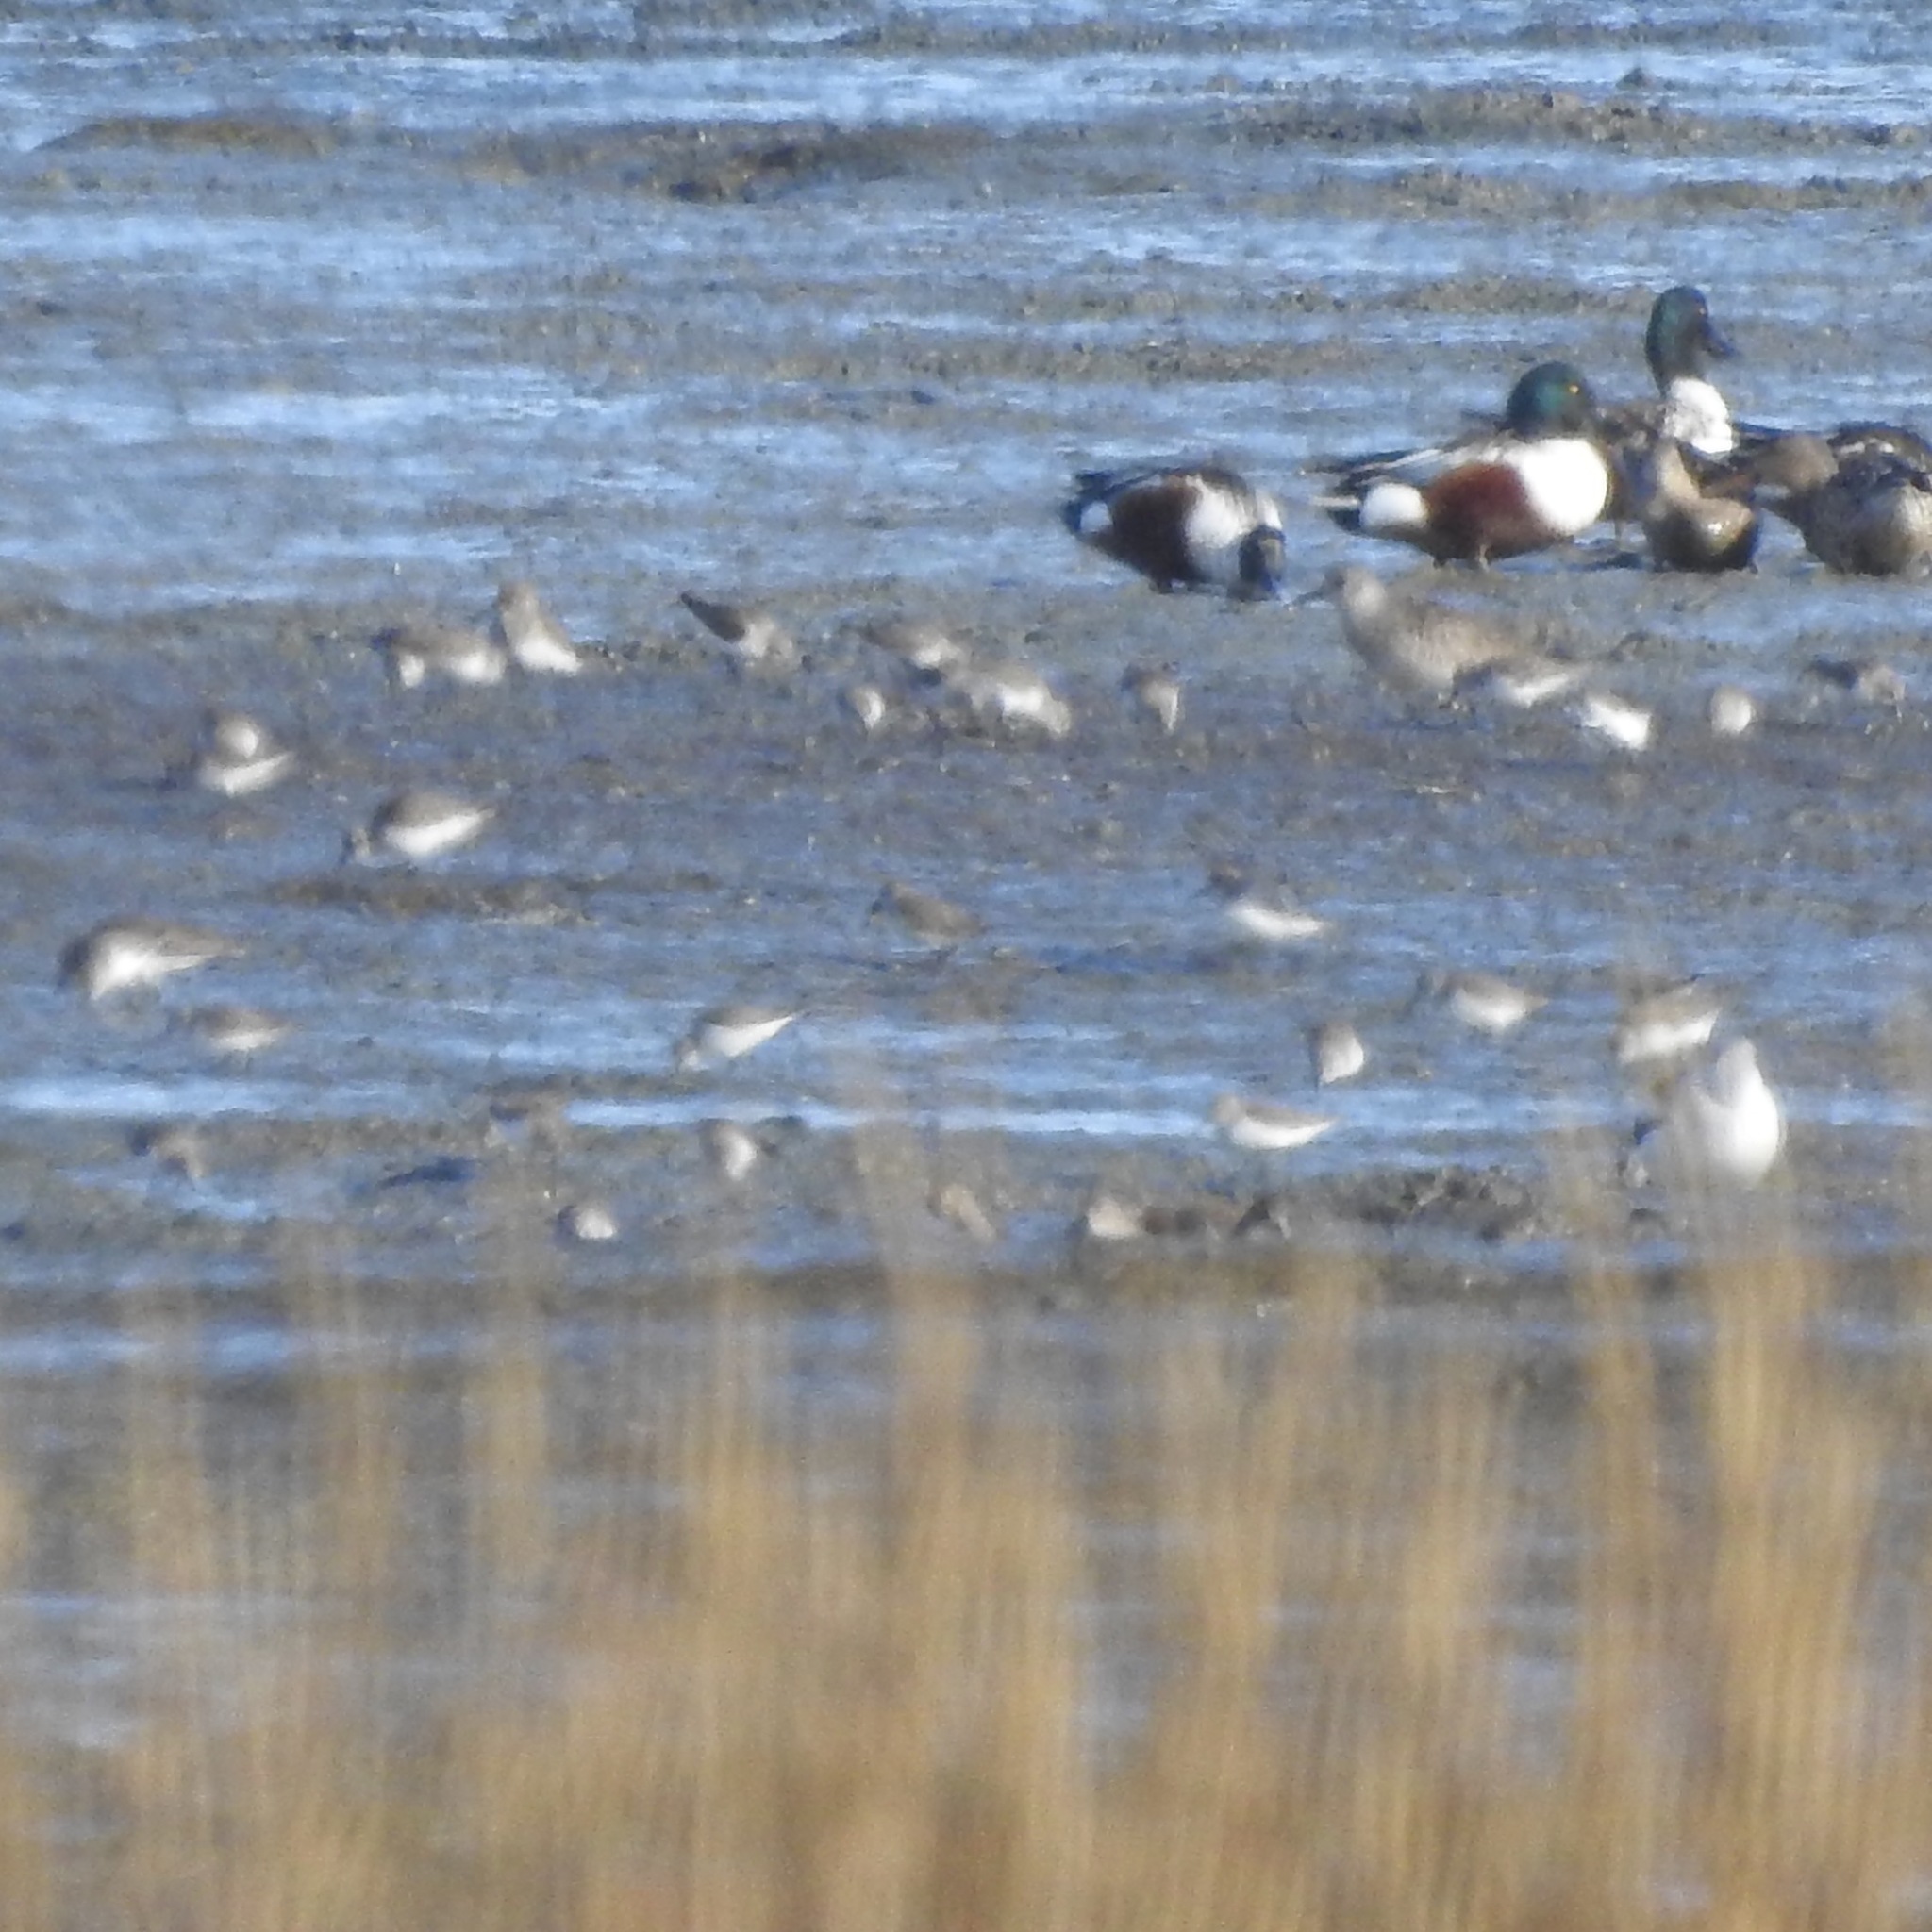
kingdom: Animalia
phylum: Chordata
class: Aves
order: Charadriiformes
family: Scolopacidae
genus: Calidris
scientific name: Calidris mauri
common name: Western sandpiper
